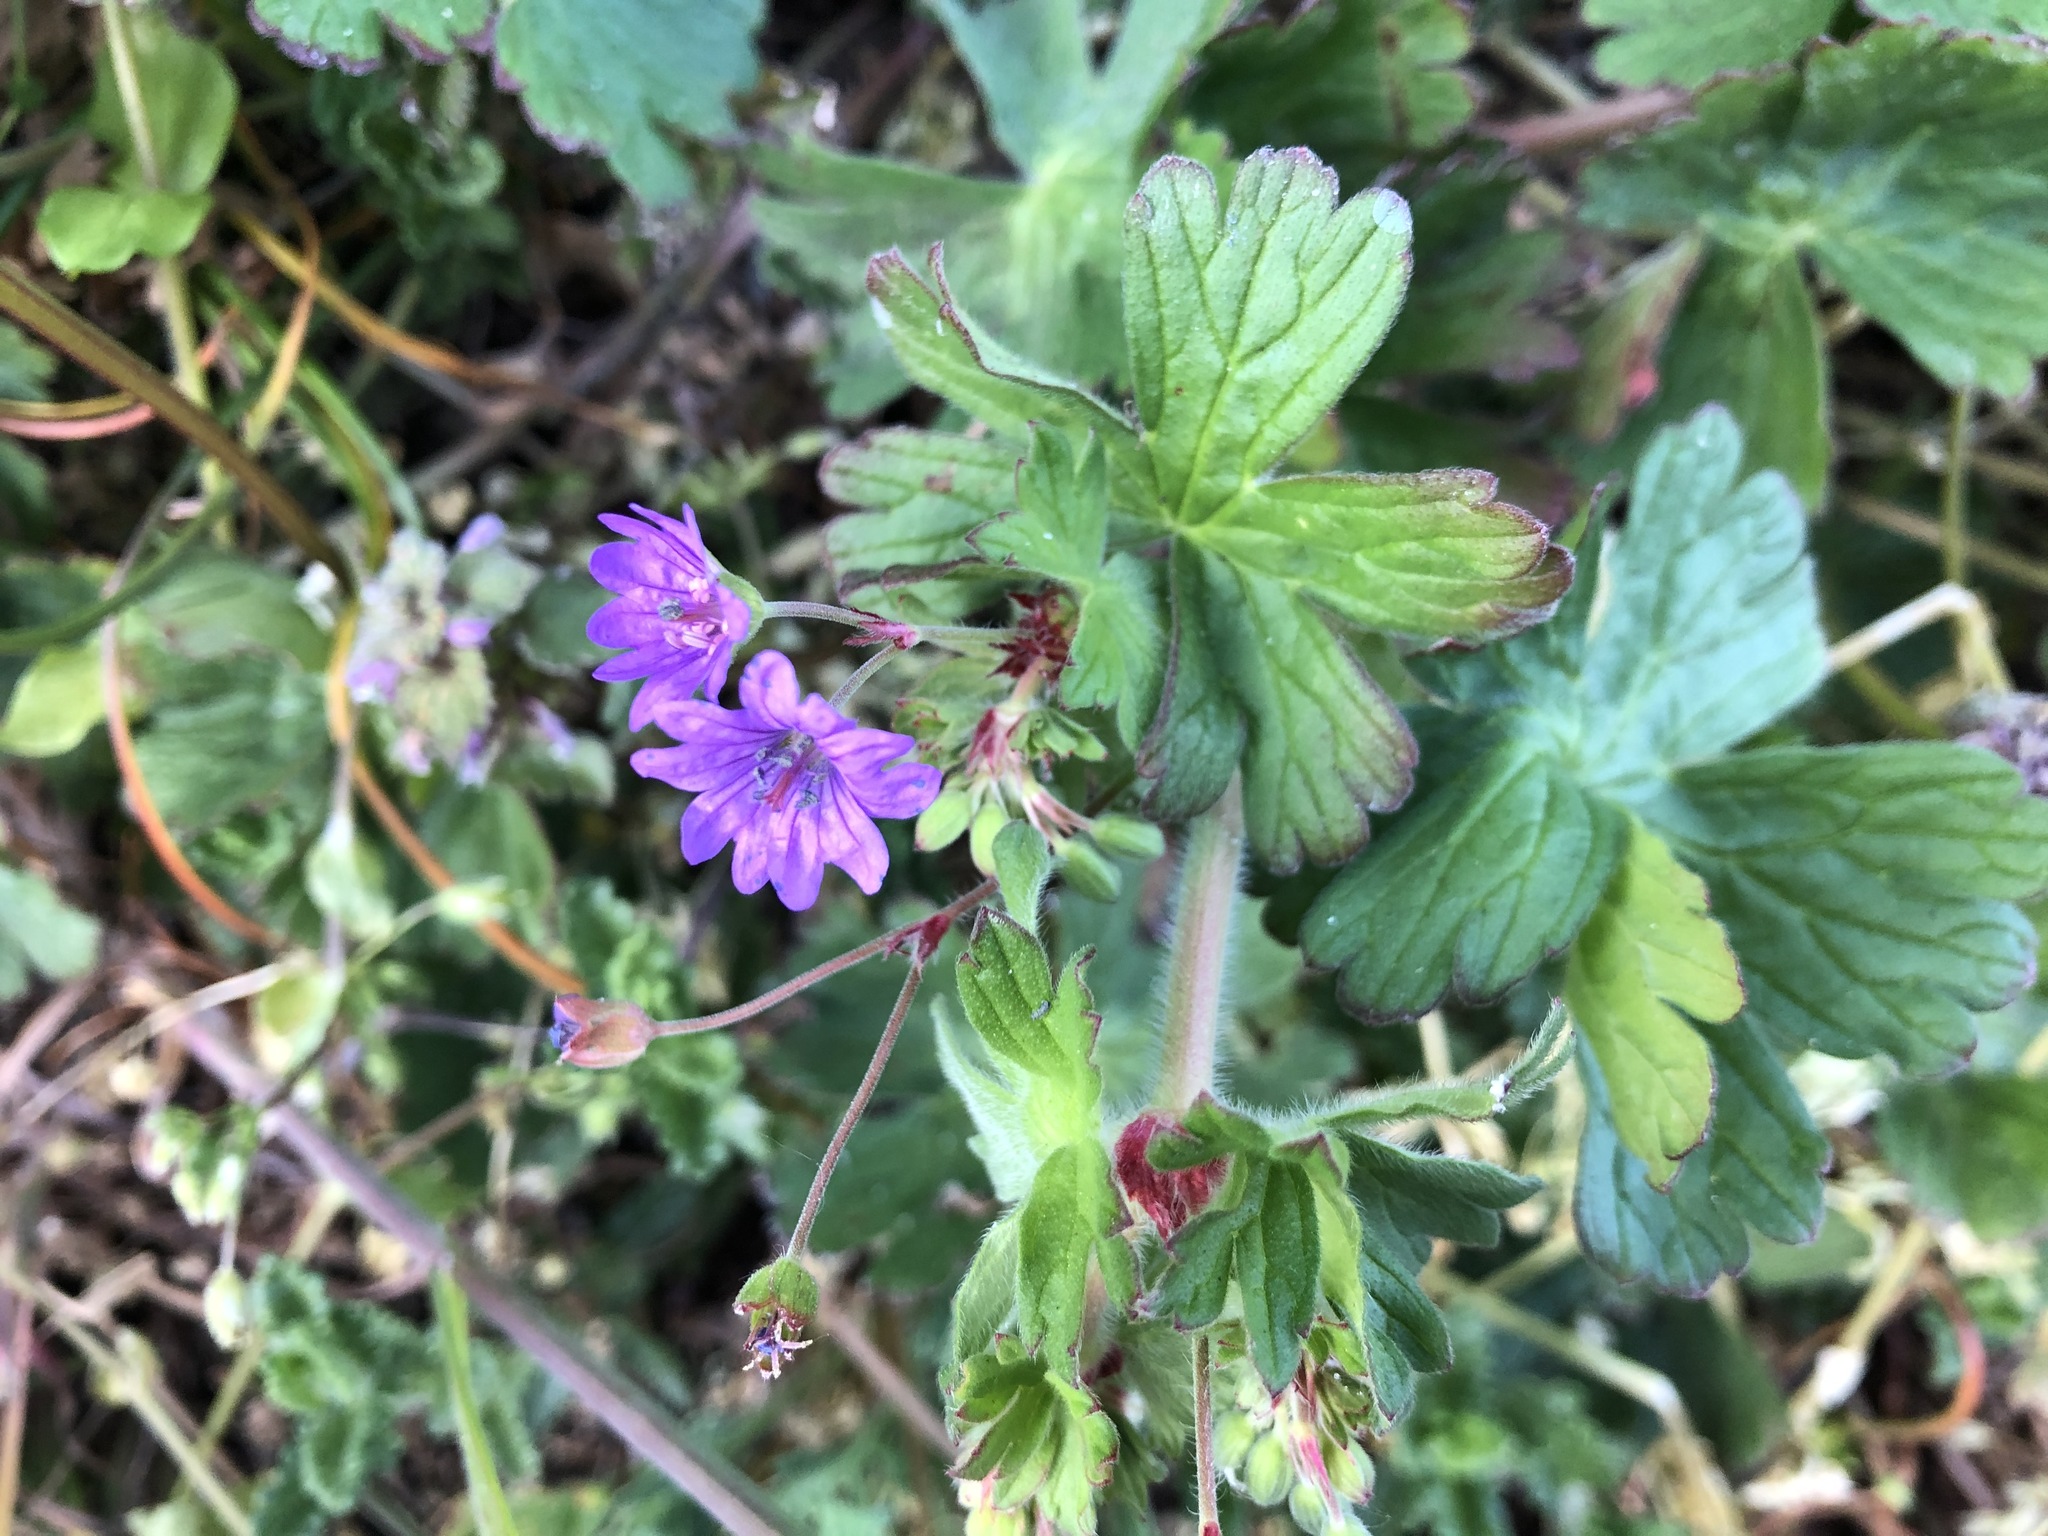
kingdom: Plantae
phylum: Tracheophyta
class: Magnoliopsida
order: Geraniales
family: Geraniaceae
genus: Geranium
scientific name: Geranium pyrenaicum
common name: Hedgerow crane's-bill
